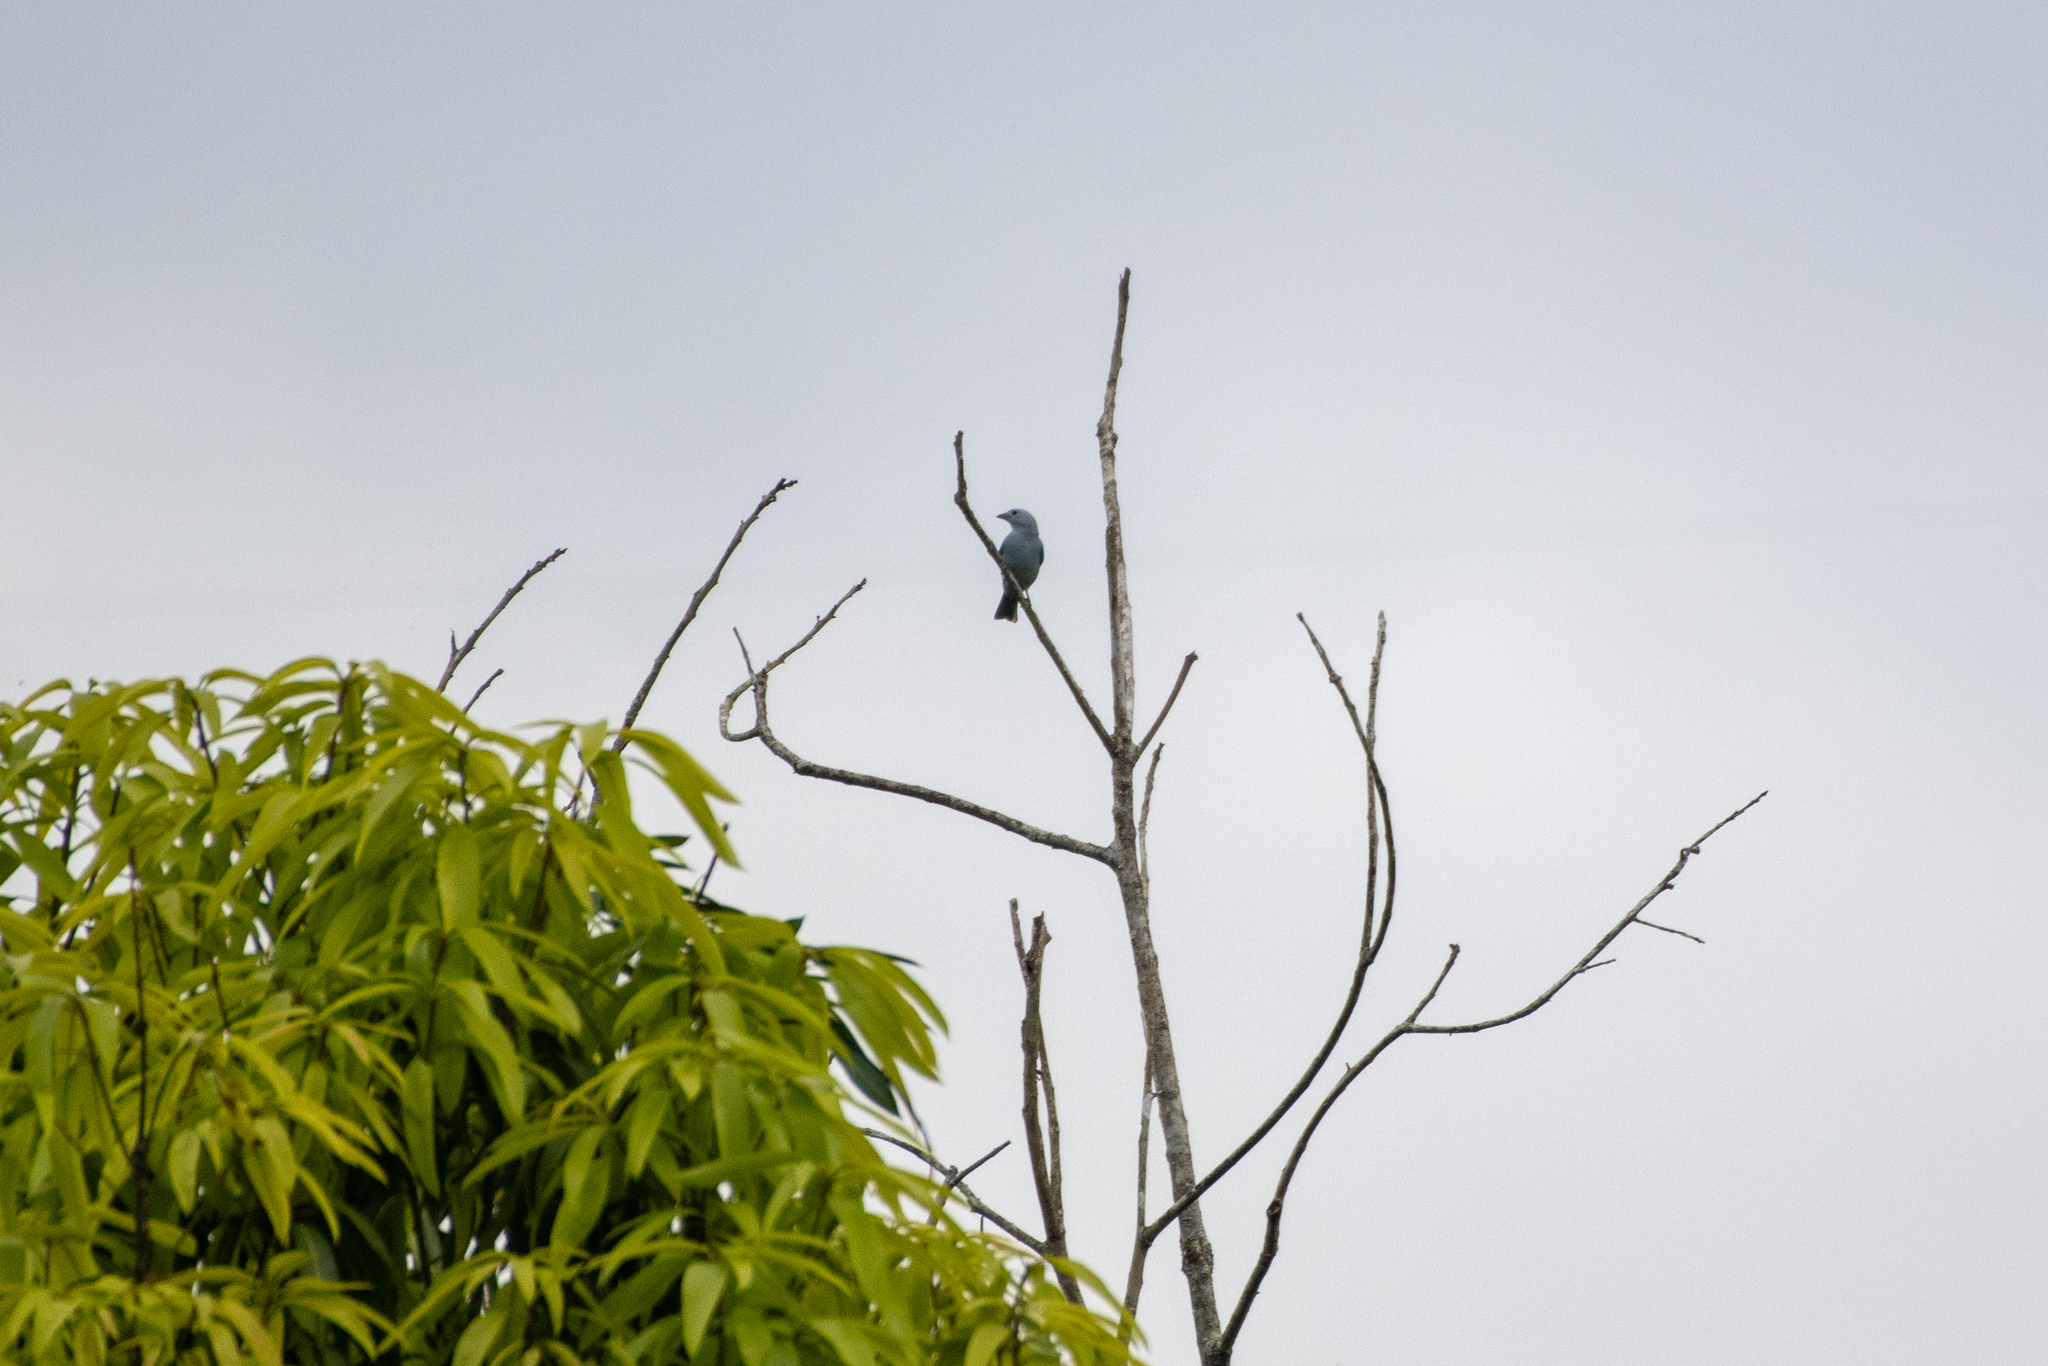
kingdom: Animalia
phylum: Chordata
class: Aves
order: Passeriformes
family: Thraupidae
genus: Thraupis
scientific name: Thraupis episcopus
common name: Blue-grey tanager
